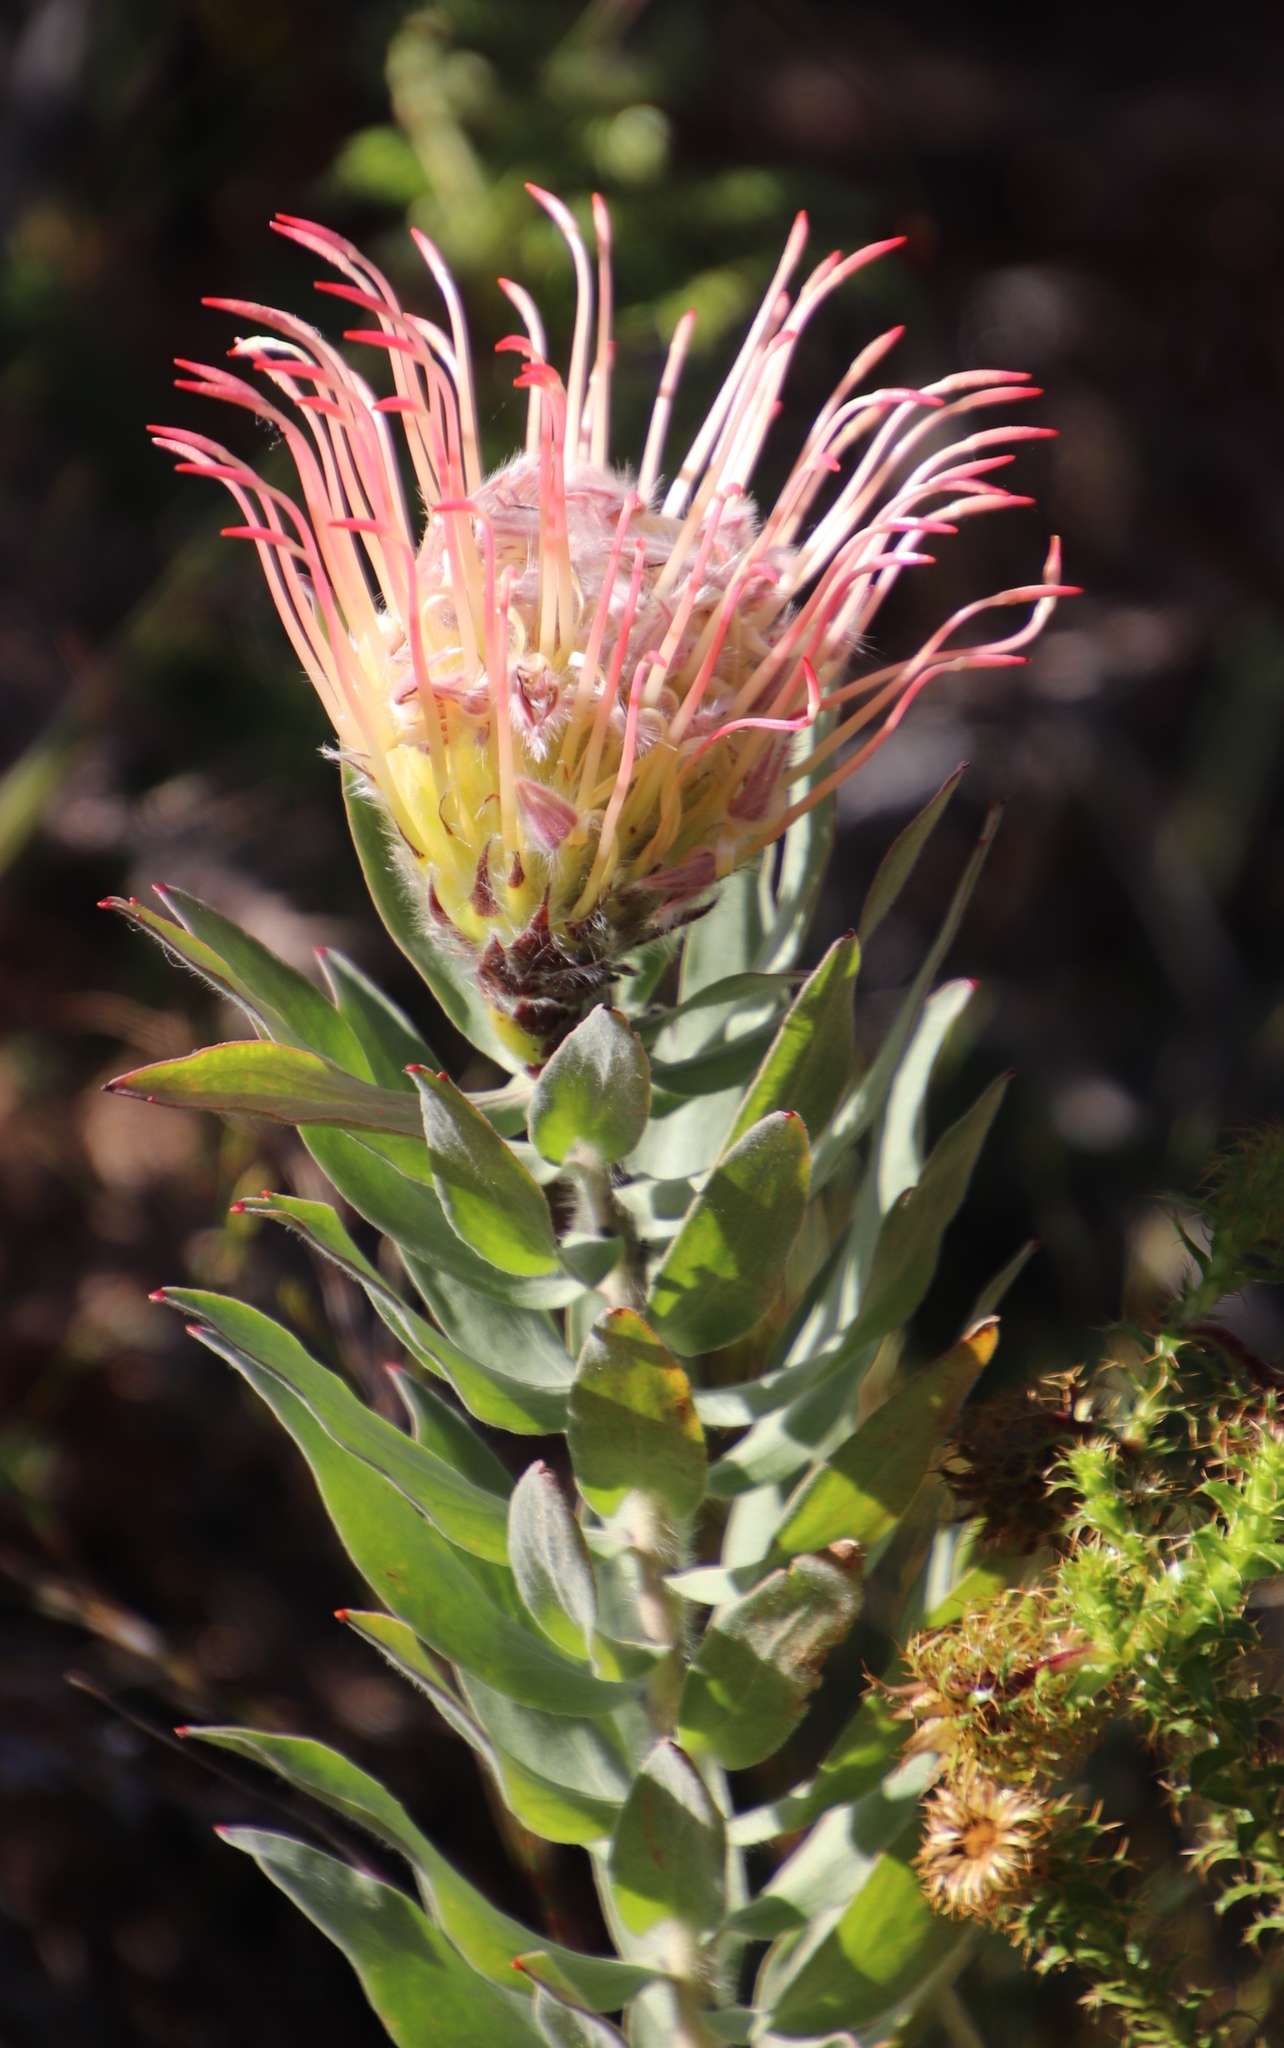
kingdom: Plantae
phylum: Tracheophyta
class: Magnoliopsida
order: Proteales
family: Proteaceae
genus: Leucospermum
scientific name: Leucospermum gueinzii
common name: Kloof fountain pincushion
